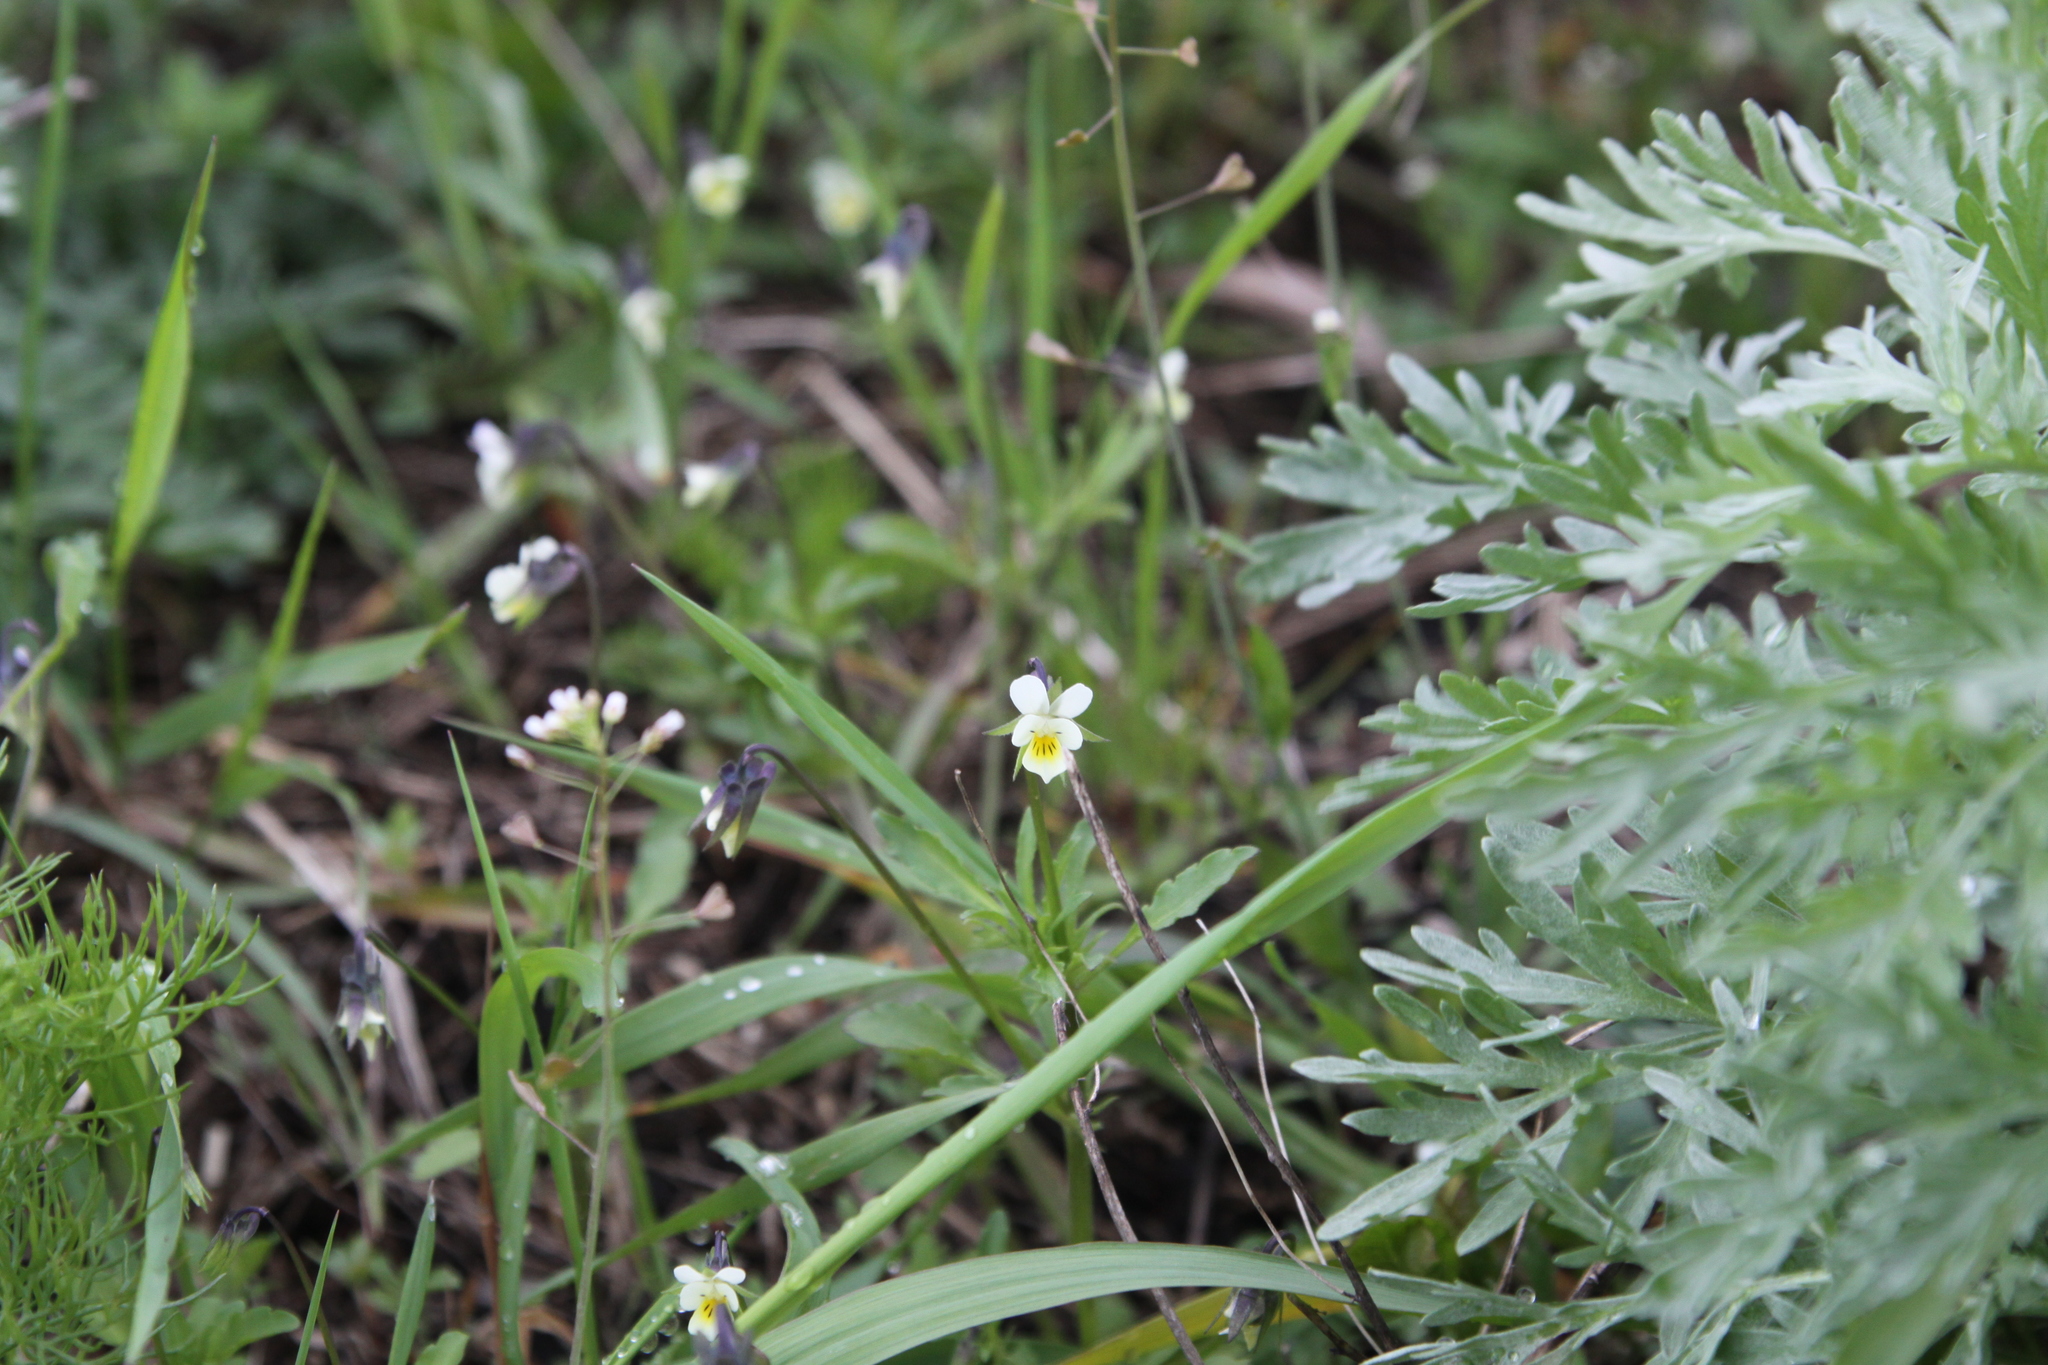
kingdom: Plantae
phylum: Tracheophyta
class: Magnoliopsida
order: Malpighiales
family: Violaceae
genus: Viola
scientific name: Viola arvensis
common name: Field pansy
